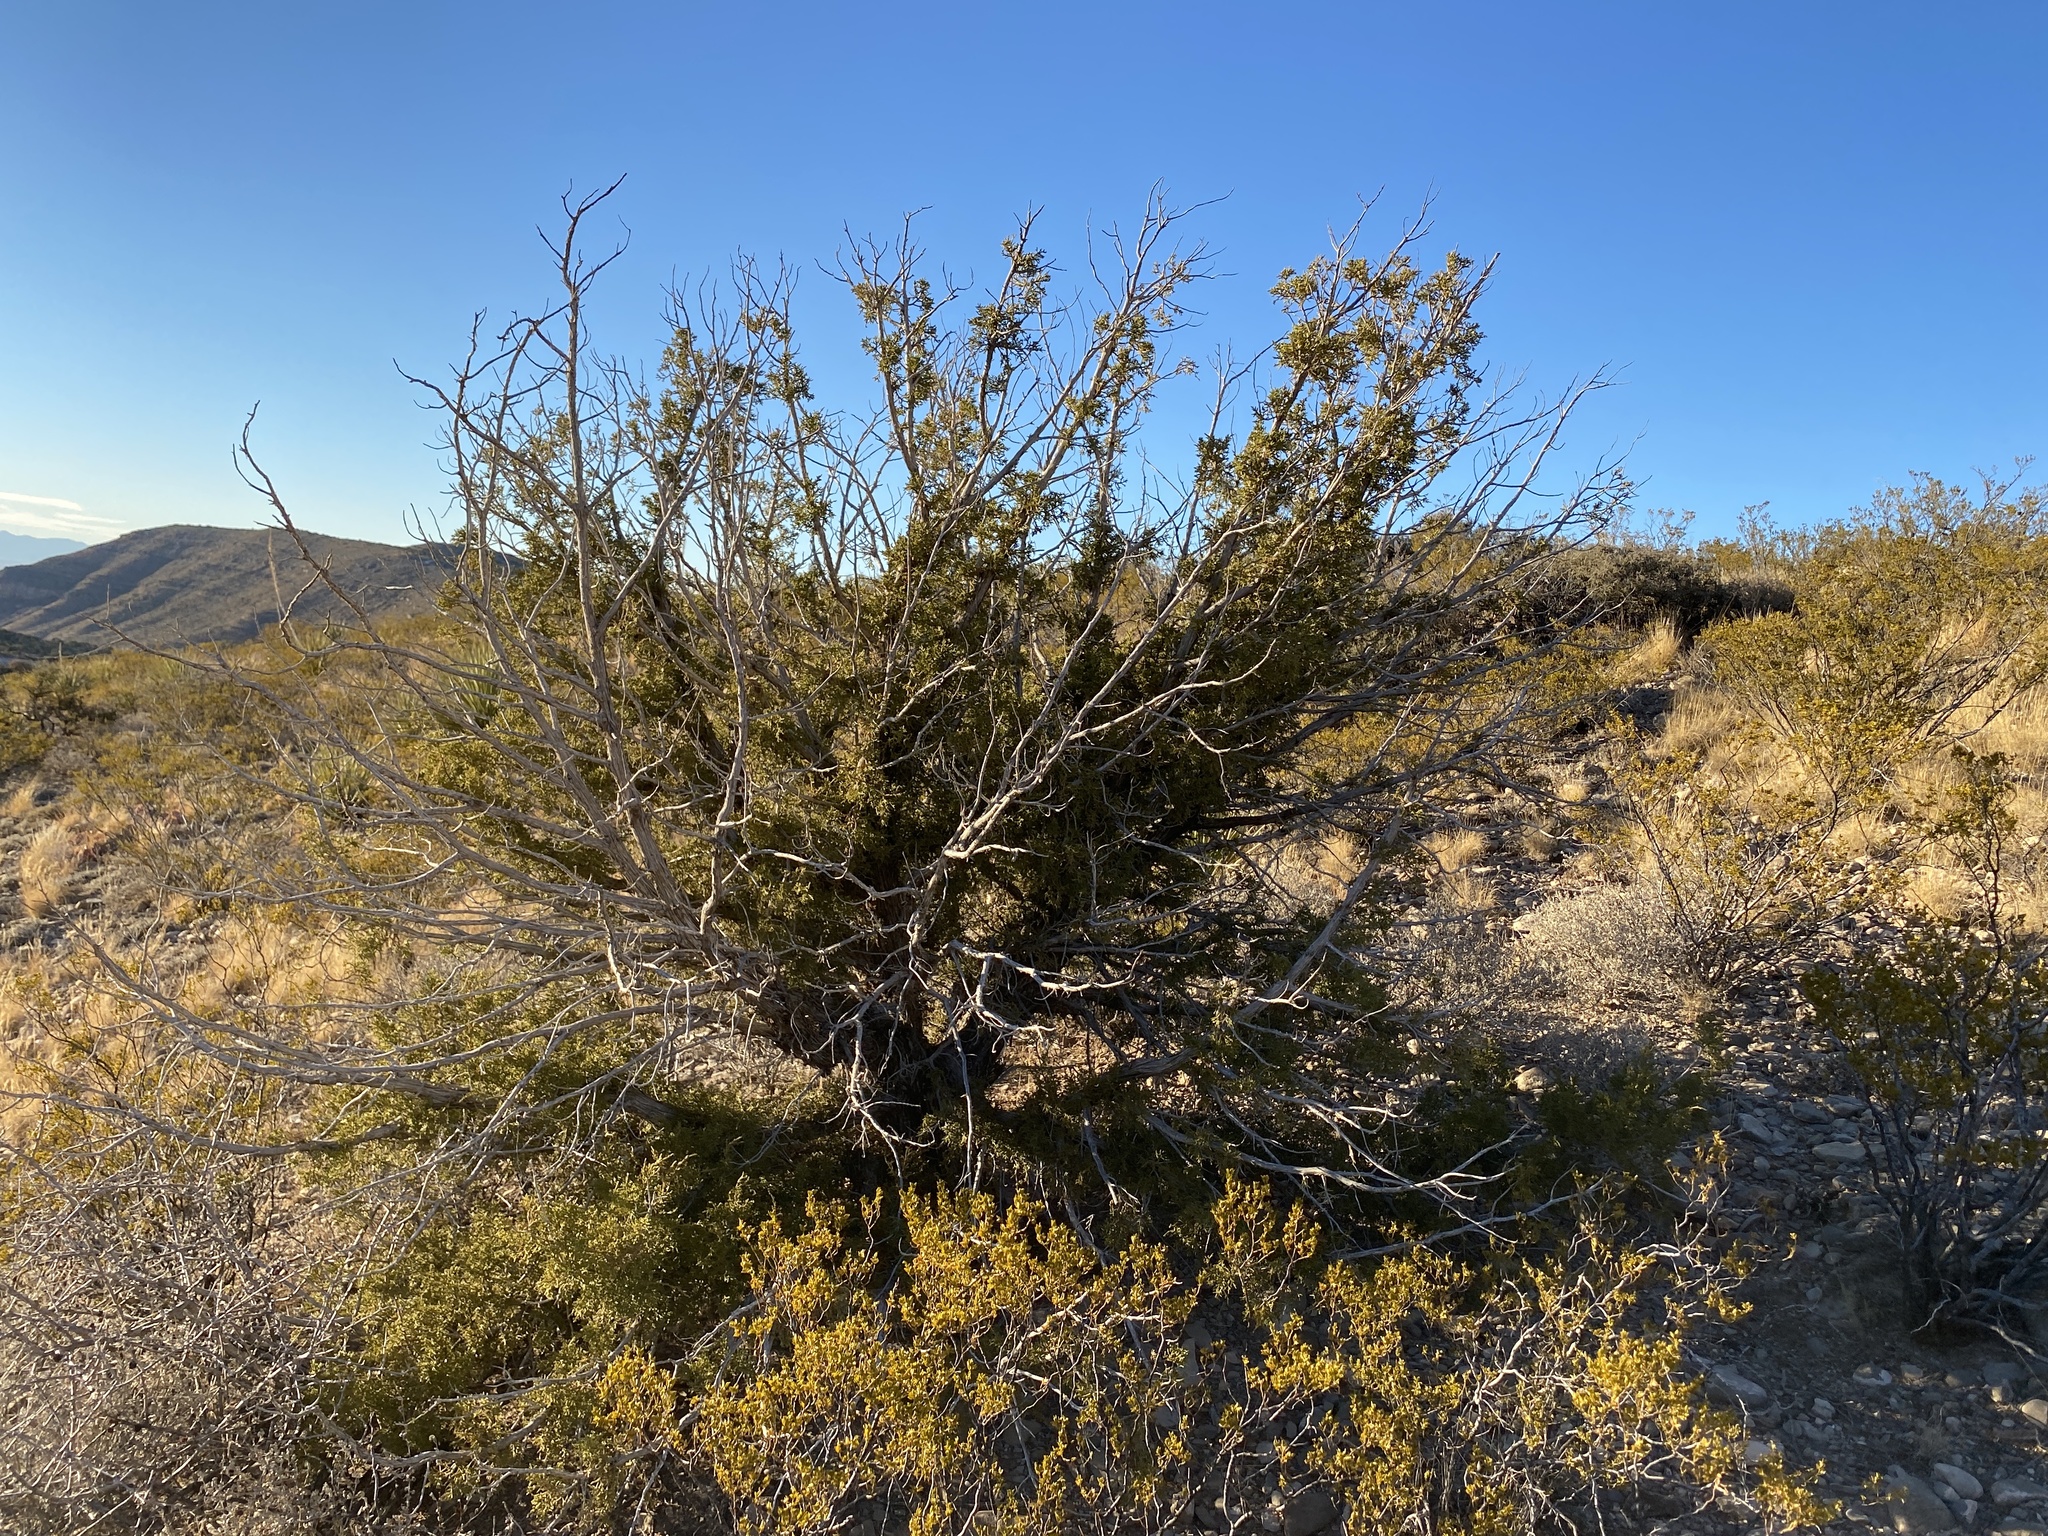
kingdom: Plantae
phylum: Tracheophyta
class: Pinopsida
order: Pinales
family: Cupressaceae
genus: Juniperus
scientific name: Juniperus monosperma
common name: One-seed juniper
